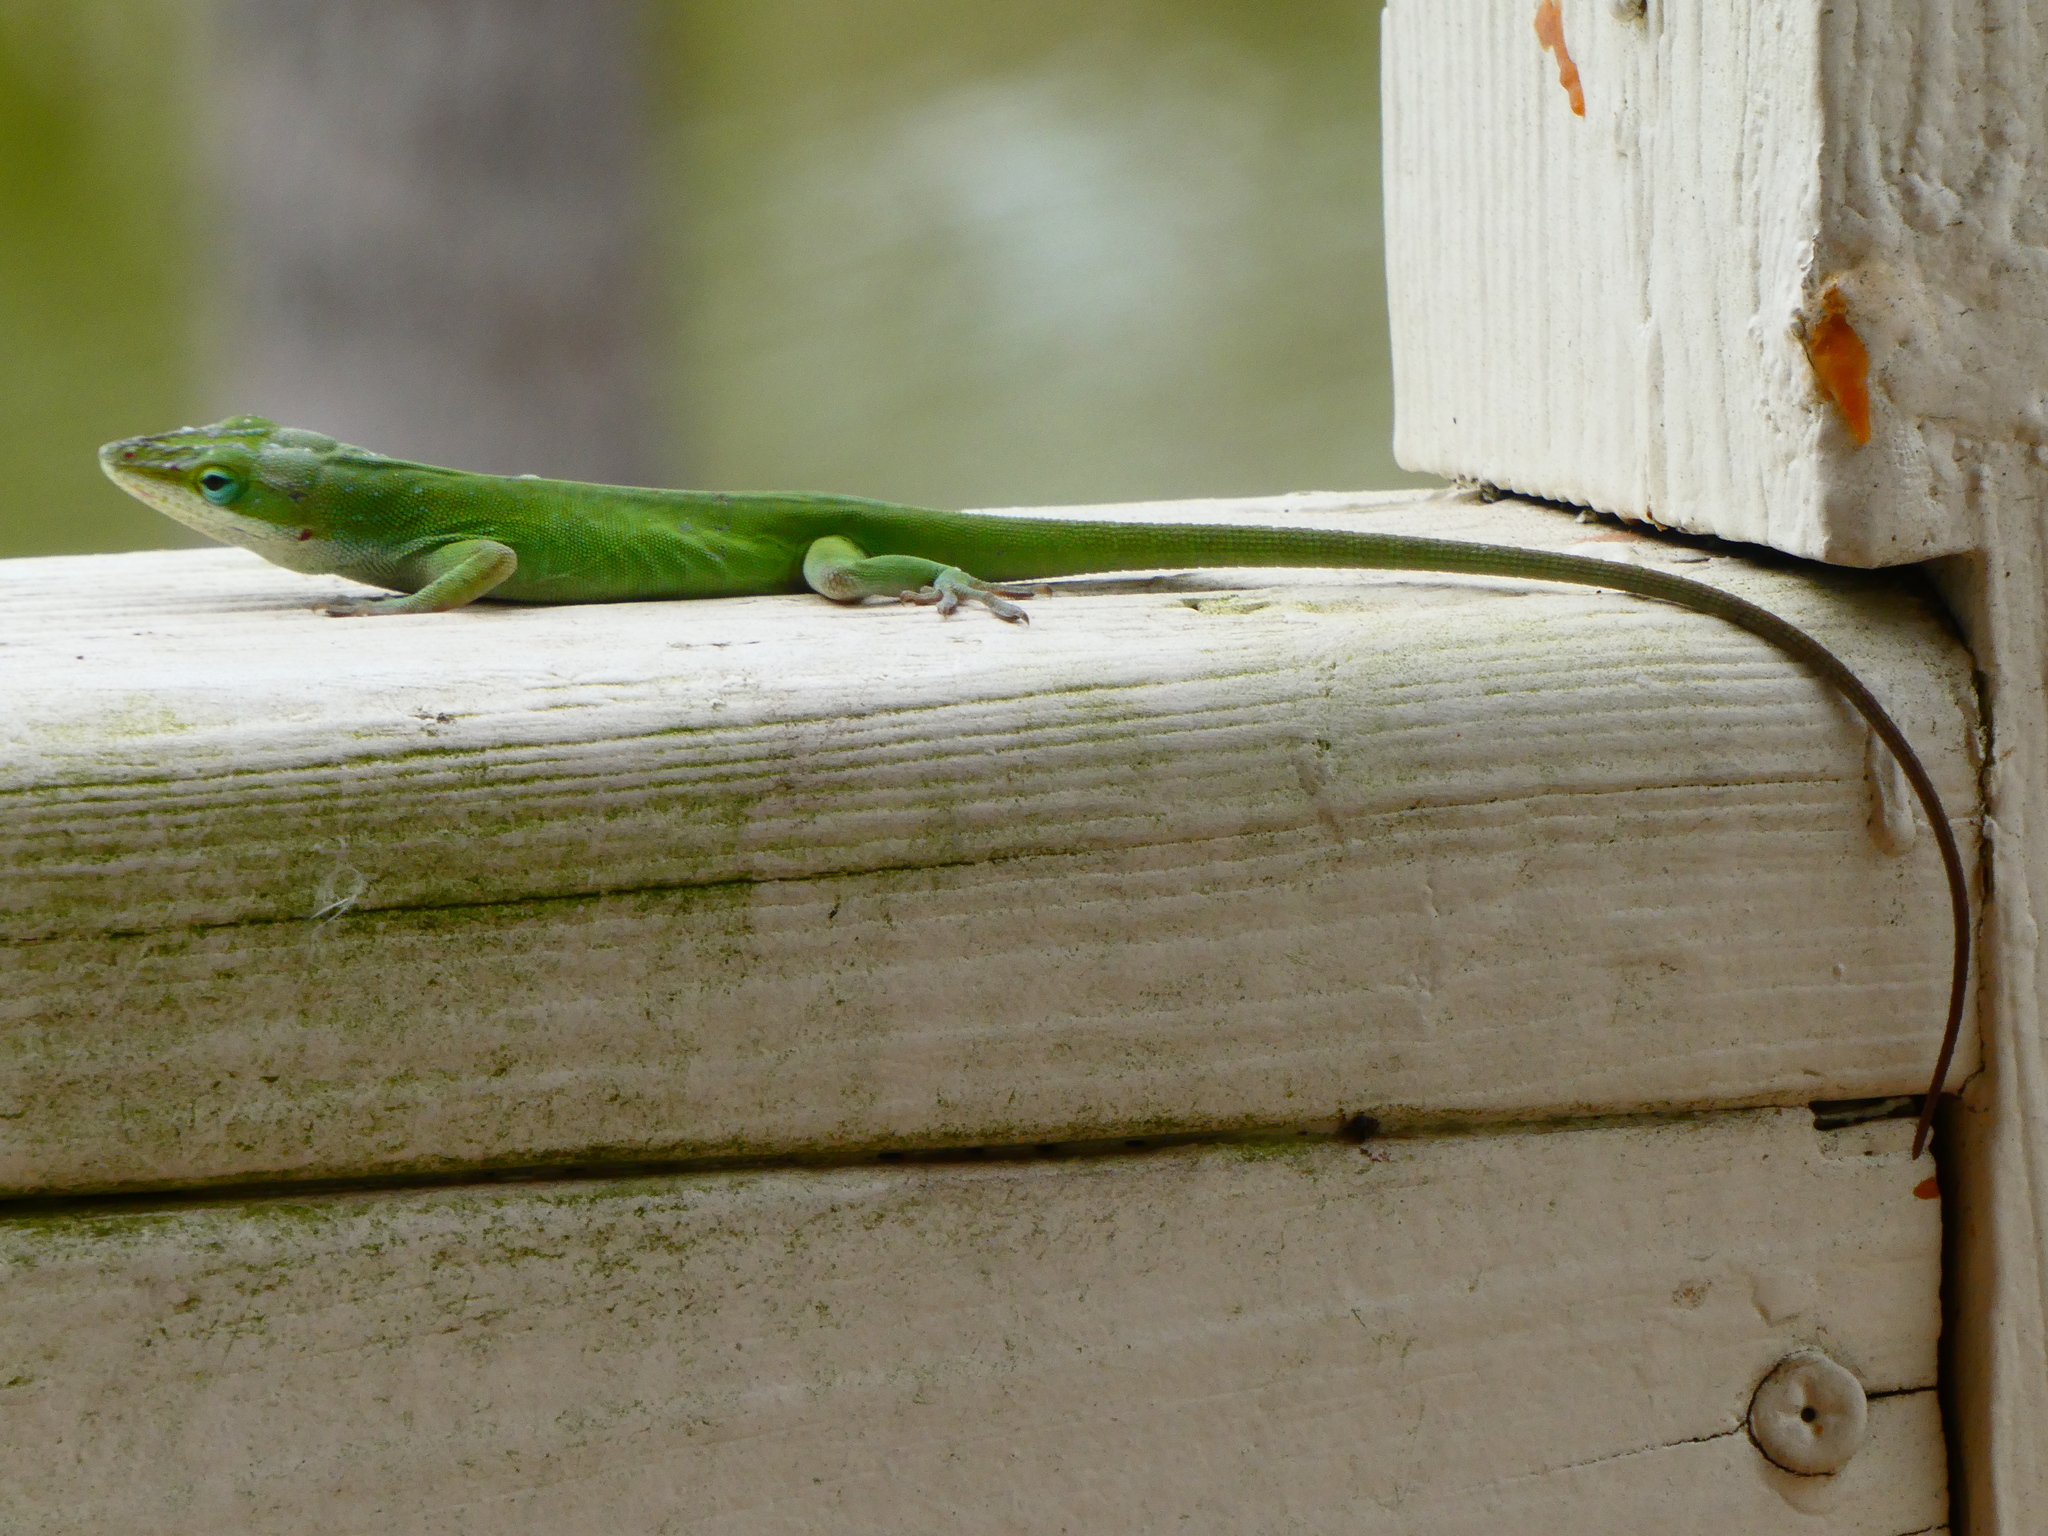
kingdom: Animalia
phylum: Chordata
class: Squamata
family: Dactyloidae
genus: Anolis
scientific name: Anolis carolinensis
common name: Green anole
